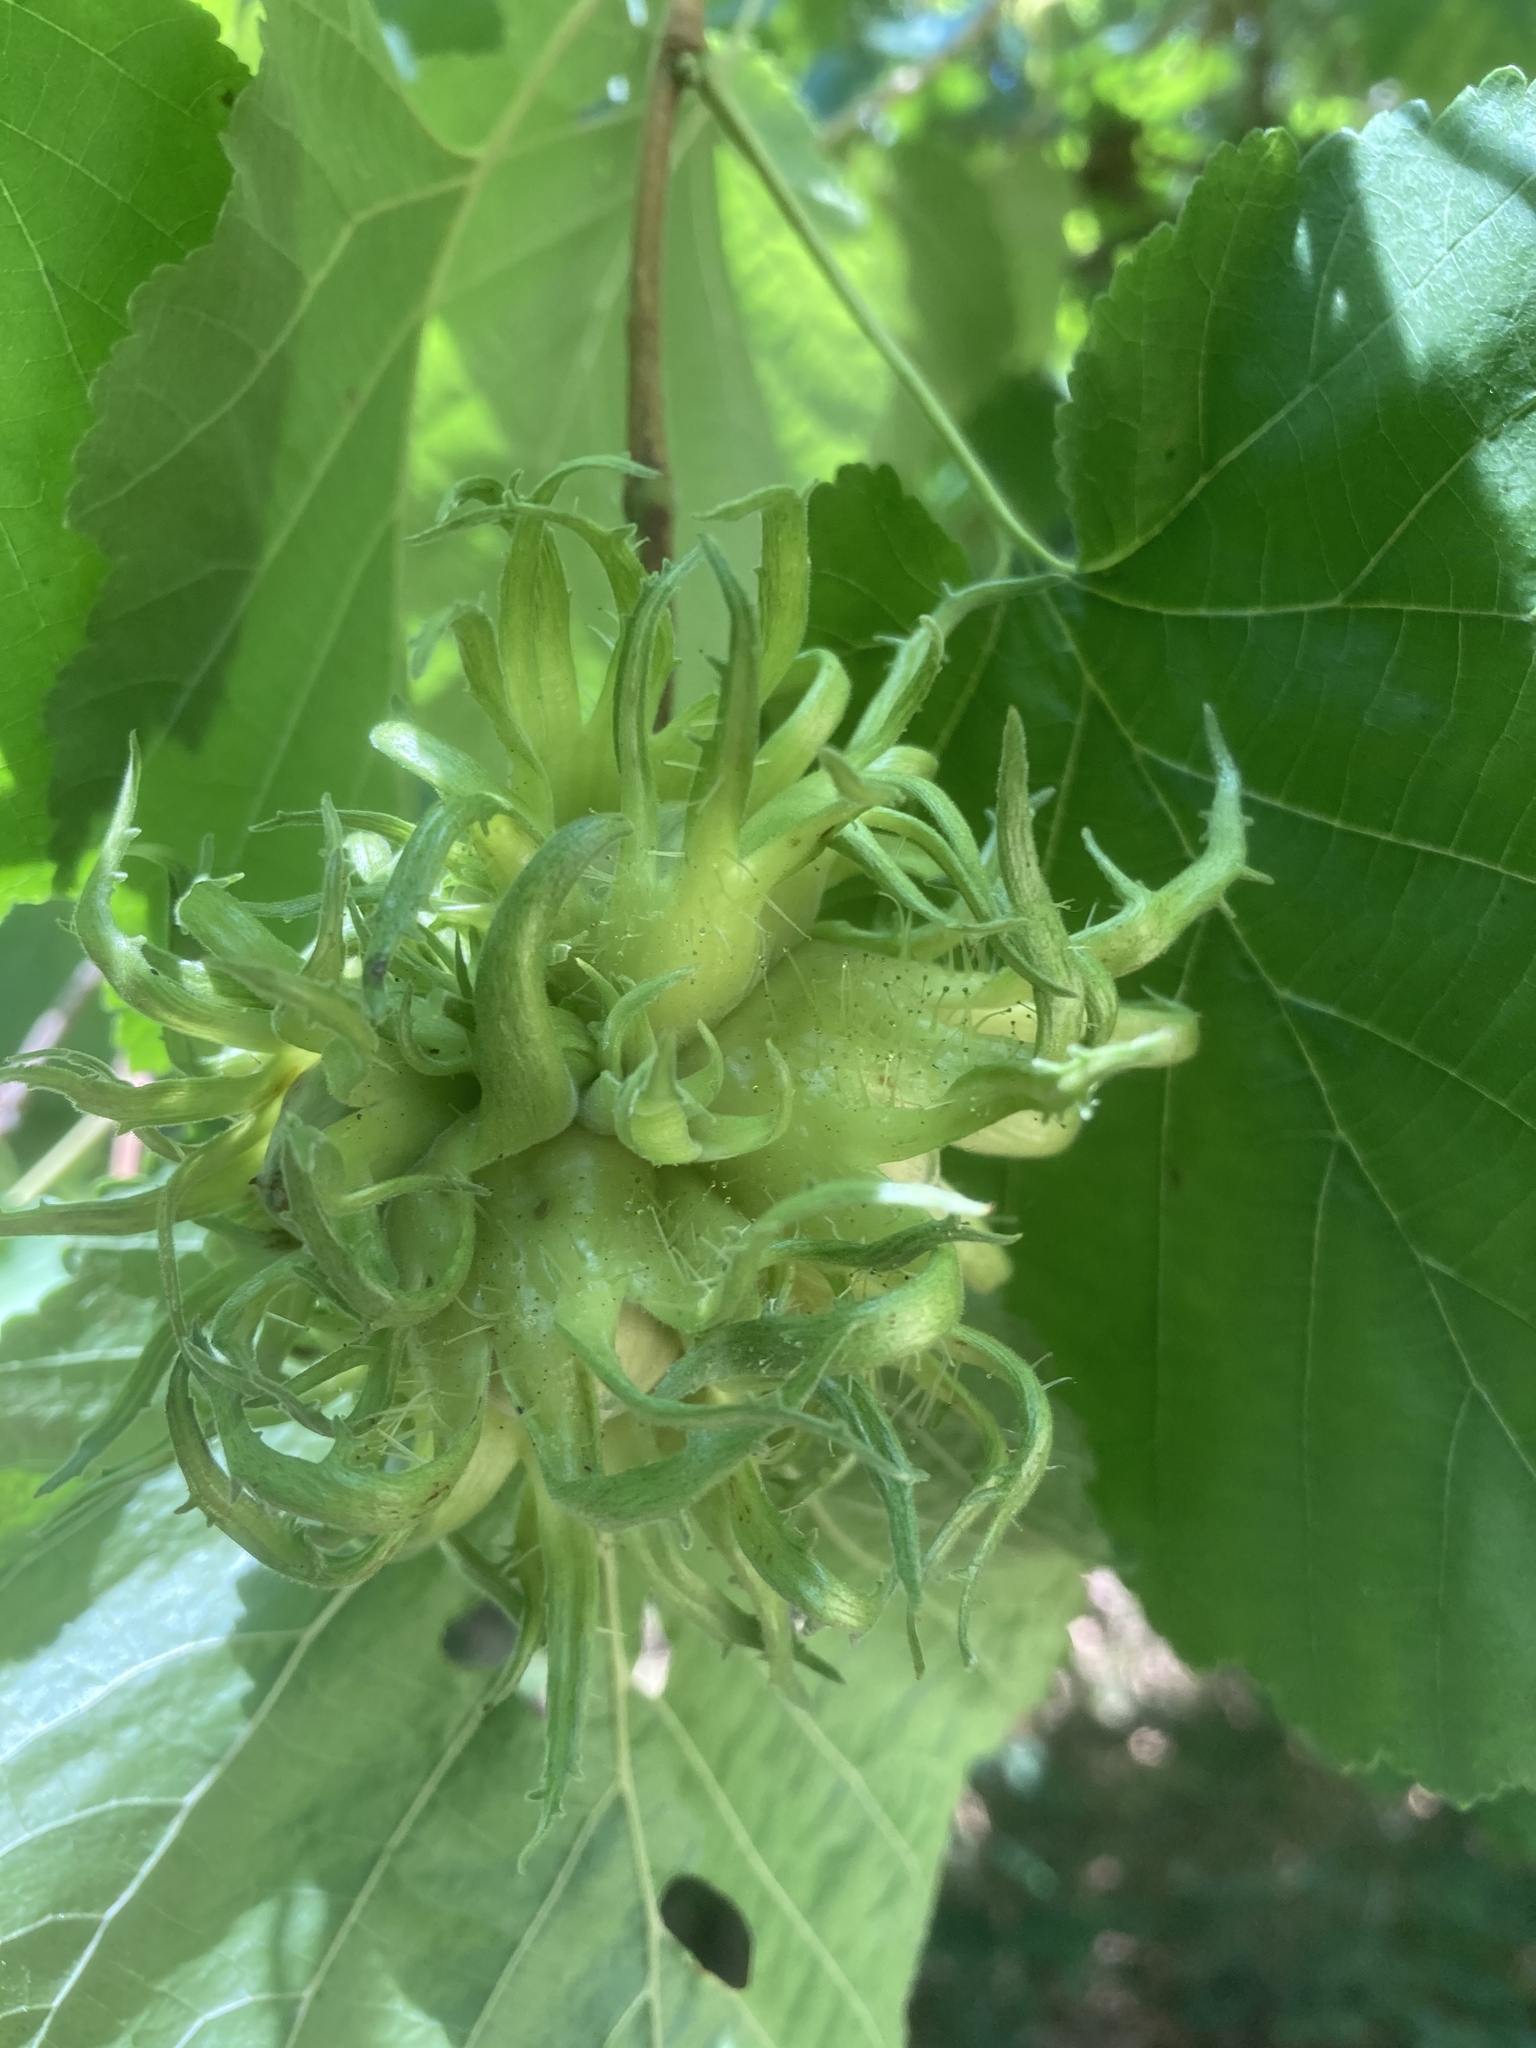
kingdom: Plantae
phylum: Tracheophyta
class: Magnoliopsida
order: Fagales
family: Betulaceae
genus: Corylus
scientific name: Corylus colurna
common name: Turkish hazel
